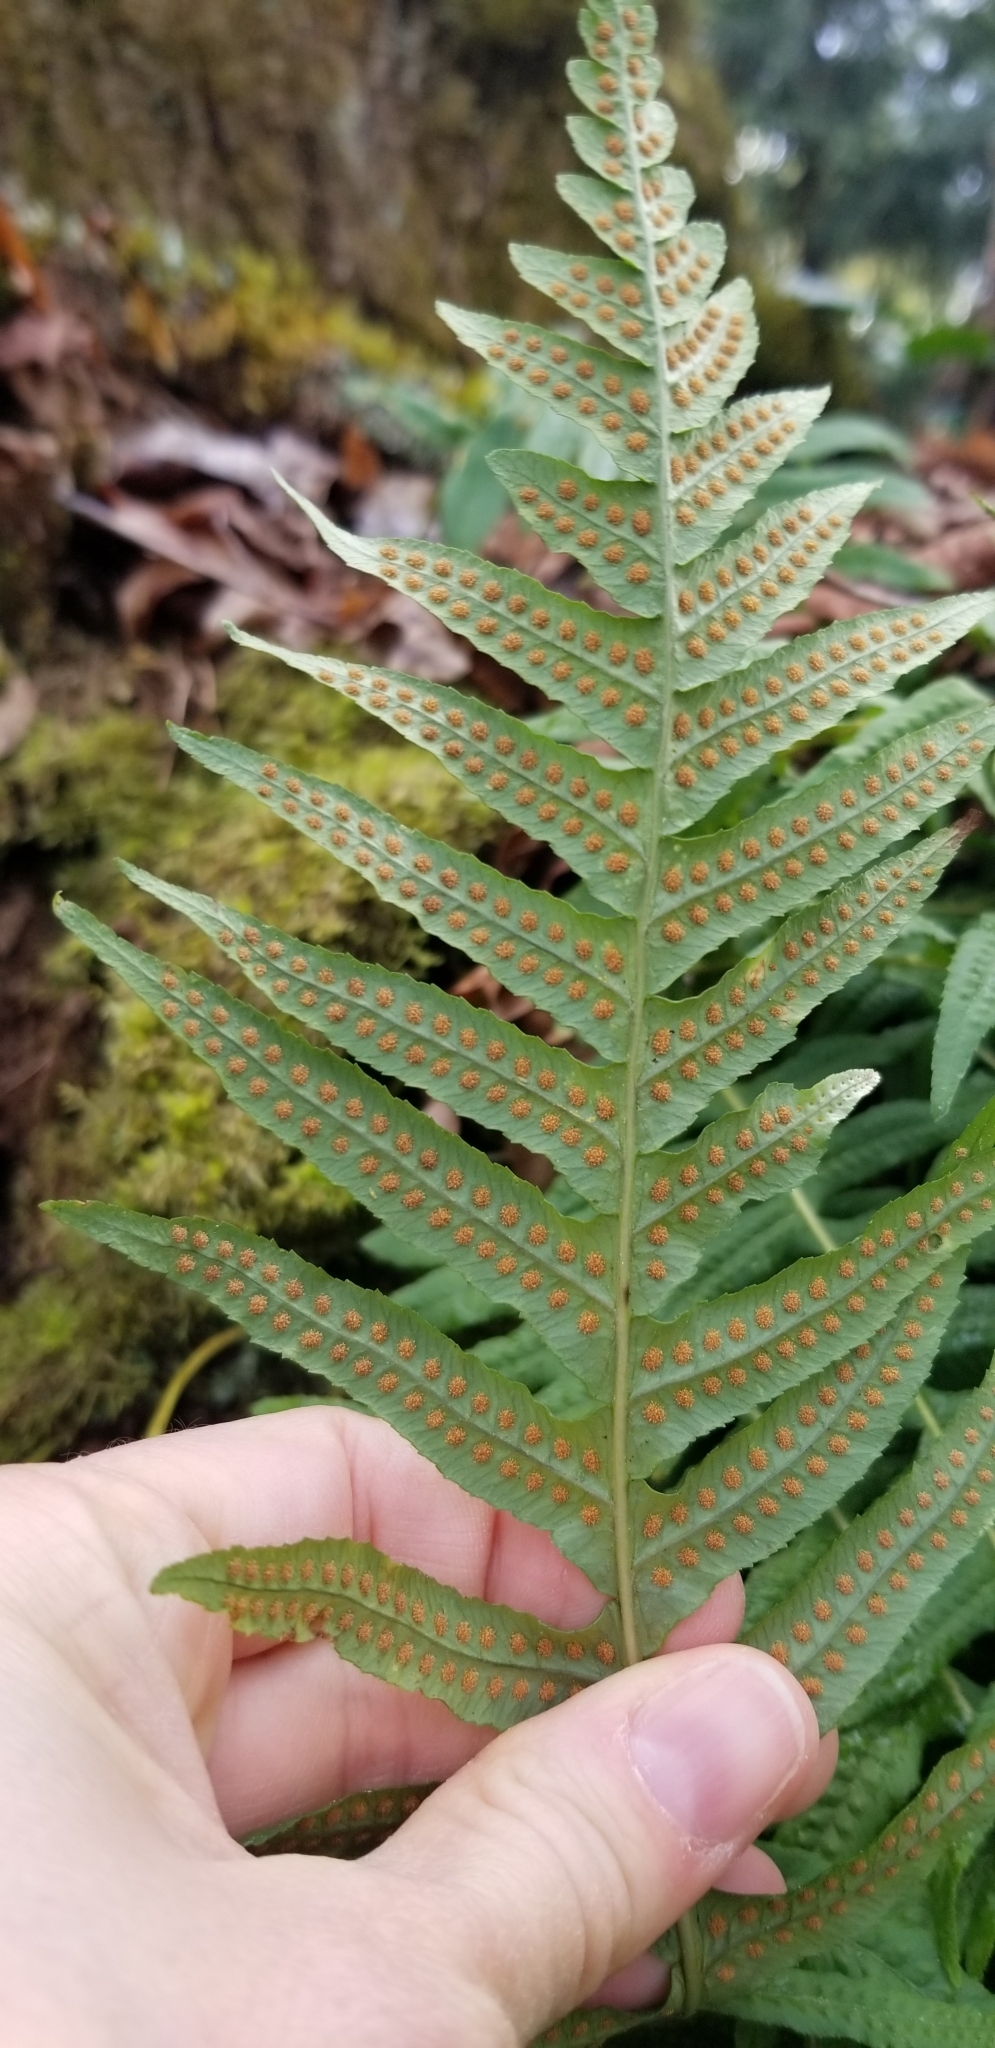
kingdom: Plantae
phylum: Tracheophyta
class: Polypodiopsida
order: Polypodiales
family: Polypodiaceae
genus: Polypodium
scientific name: Polypodium glycyrrhiza
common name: Licorice fern
